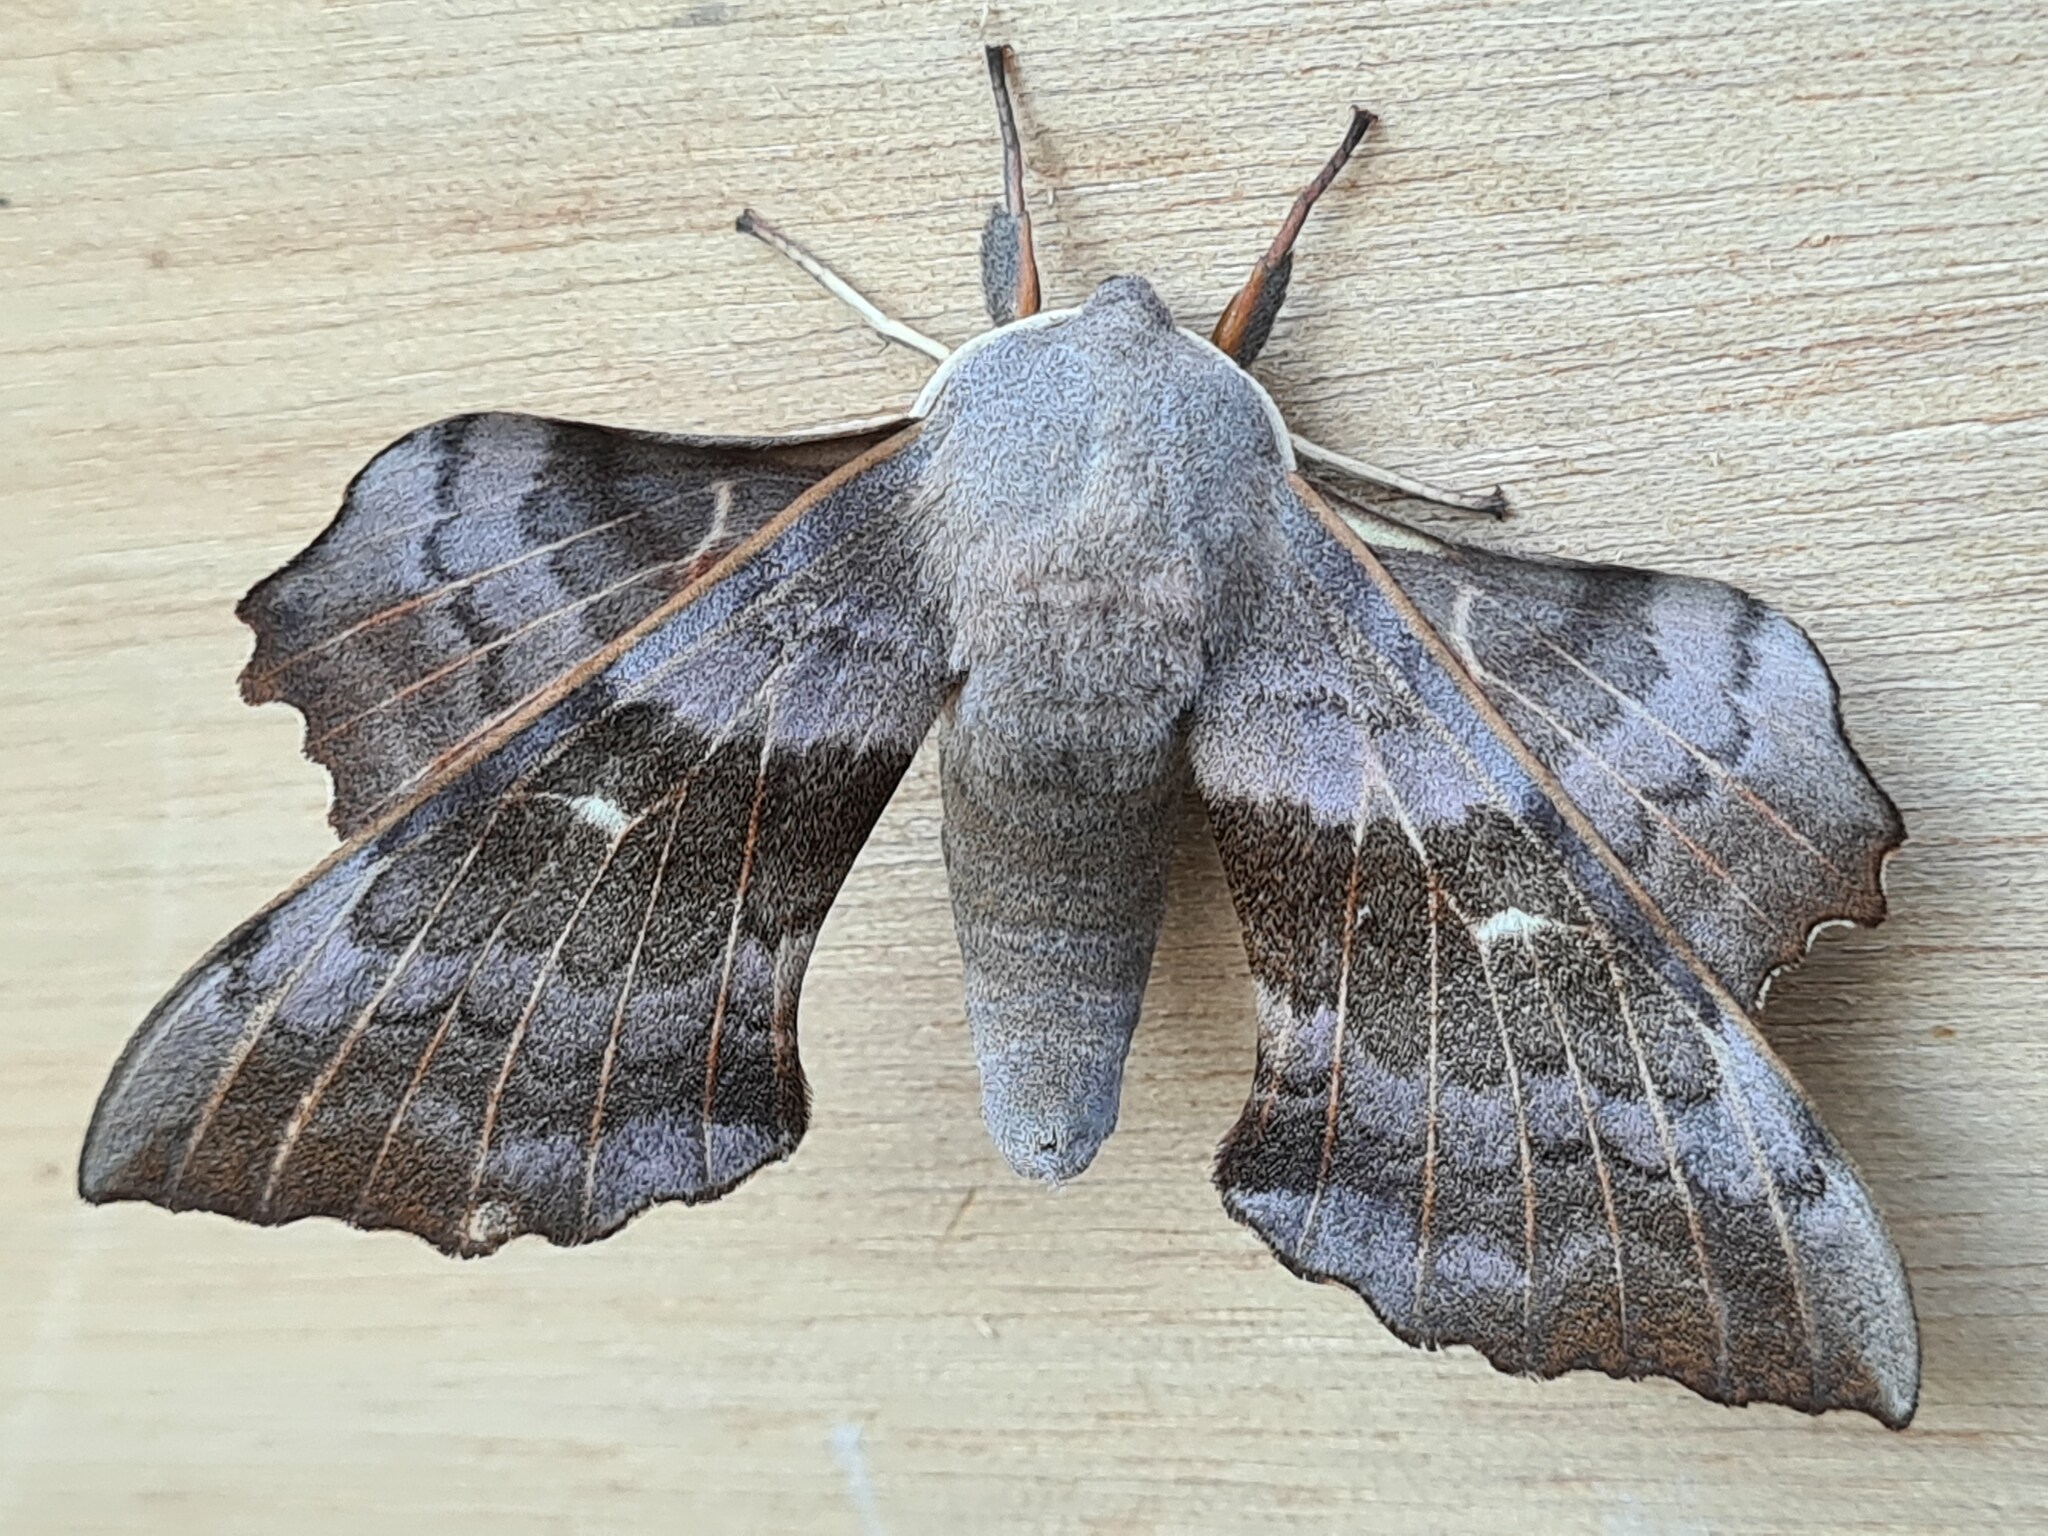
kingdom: Animalia
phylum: Arthropoda
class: Insecta
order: Lepidoptera
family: Sphingidae
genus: Laothoe
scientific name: Laothoe populi
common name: Poplar hawk-moth
